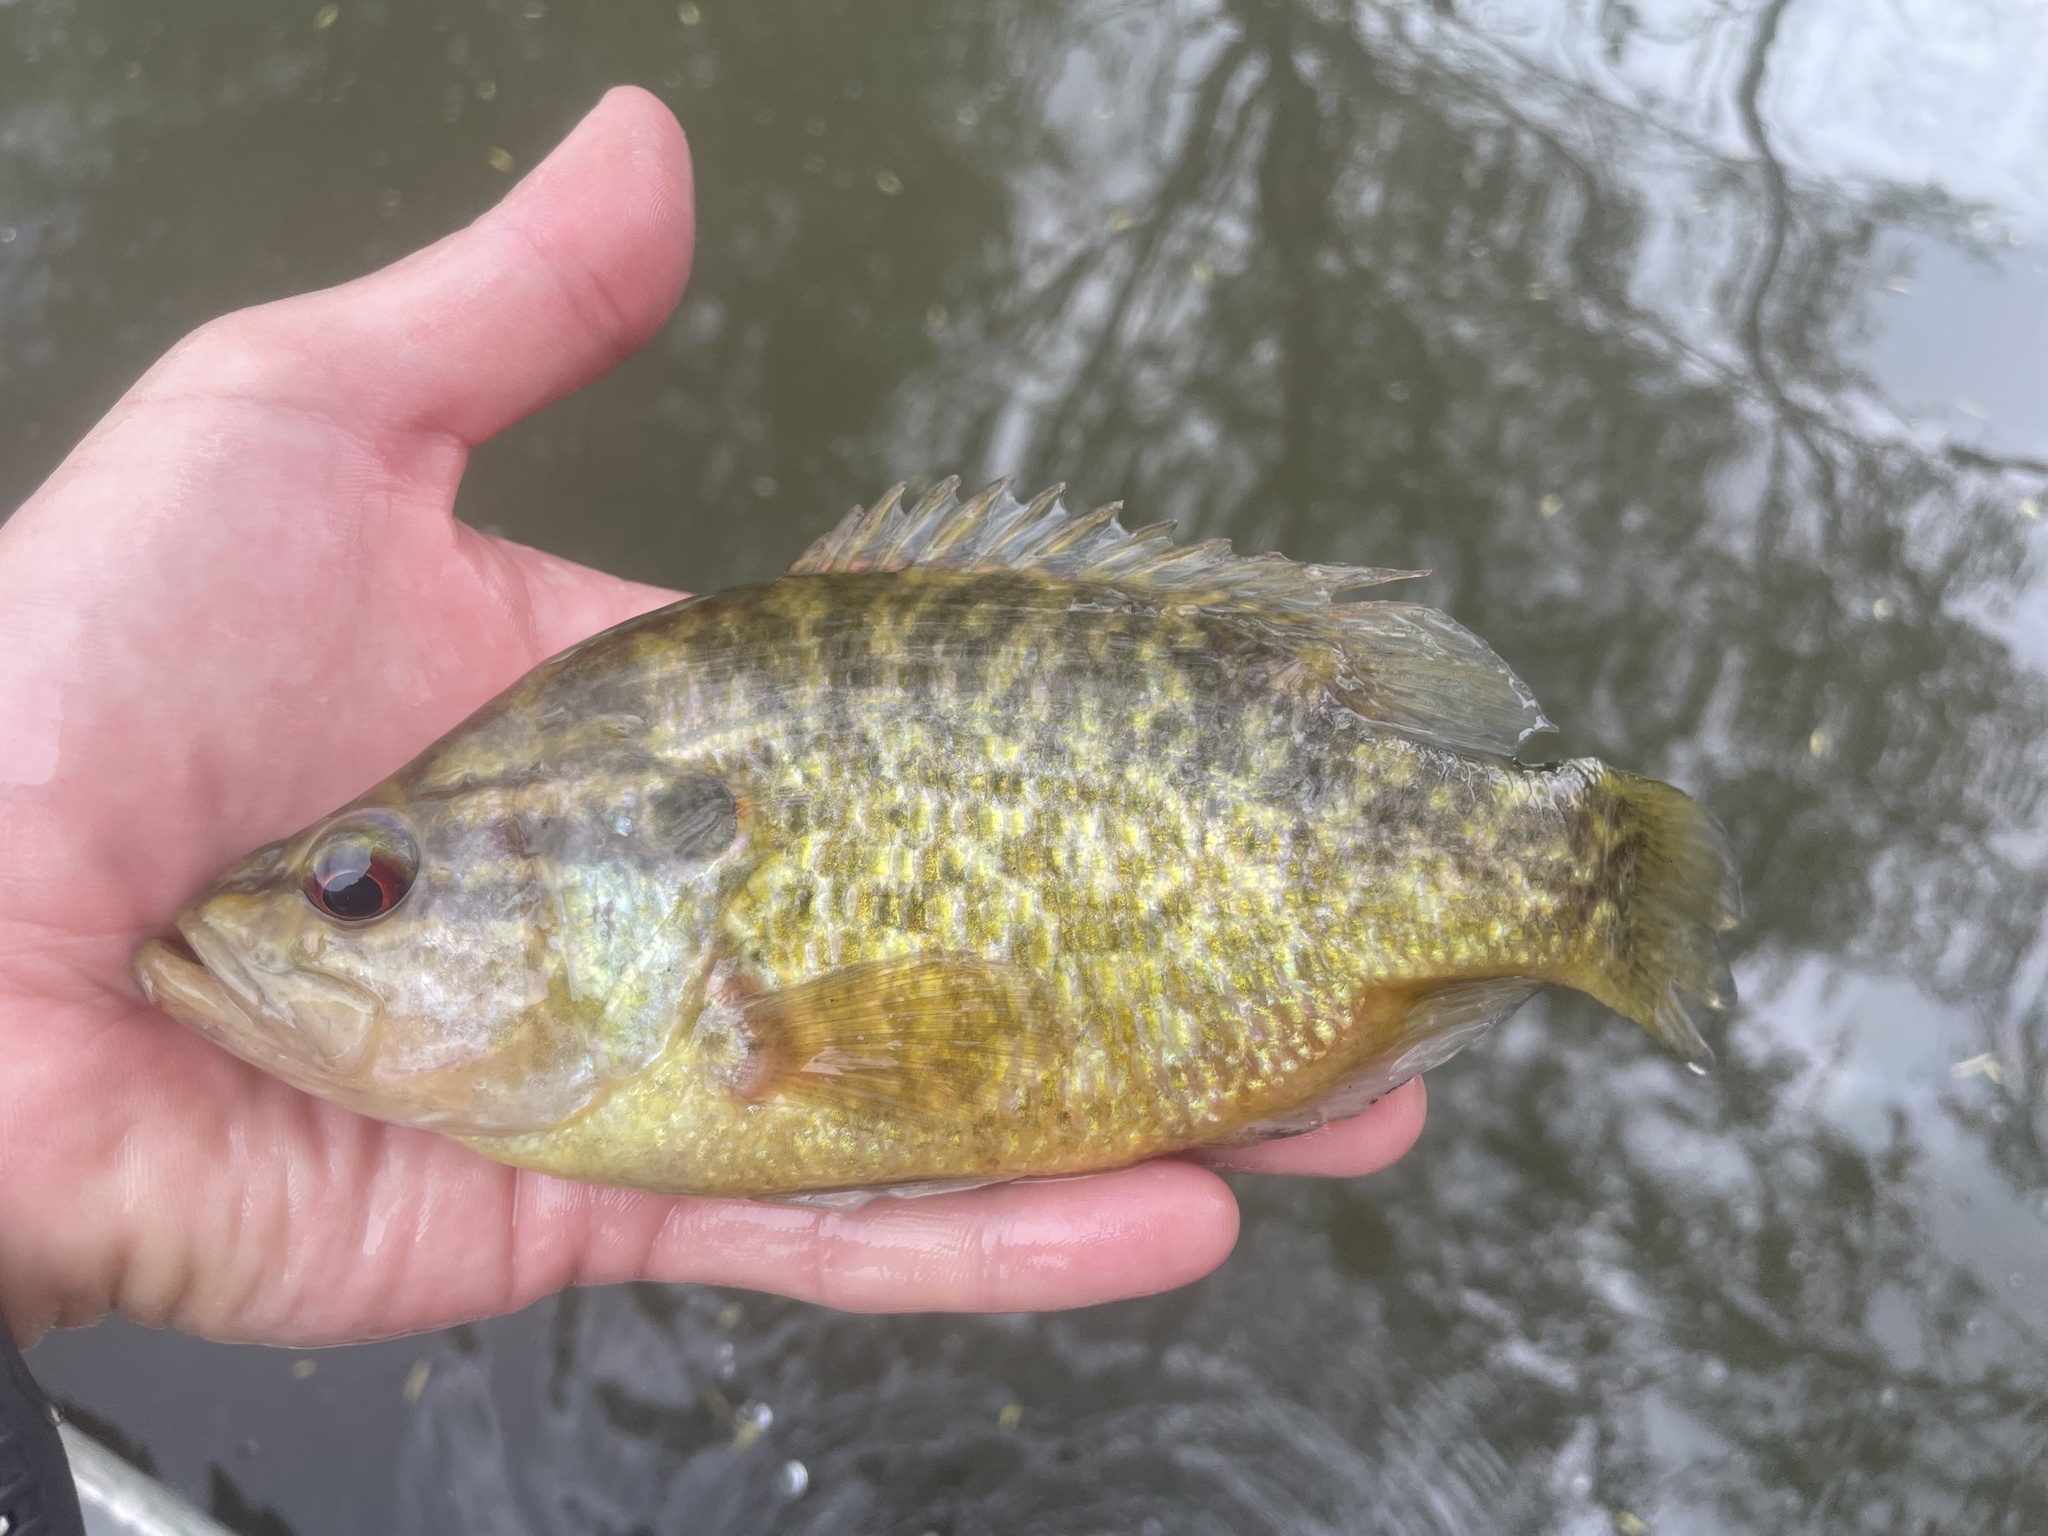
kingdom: Animalia
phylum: Chordata
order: Perciformes
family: Centrarchidae
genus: Lepomis
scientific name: Lepomis gulosus
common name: Warmouth
